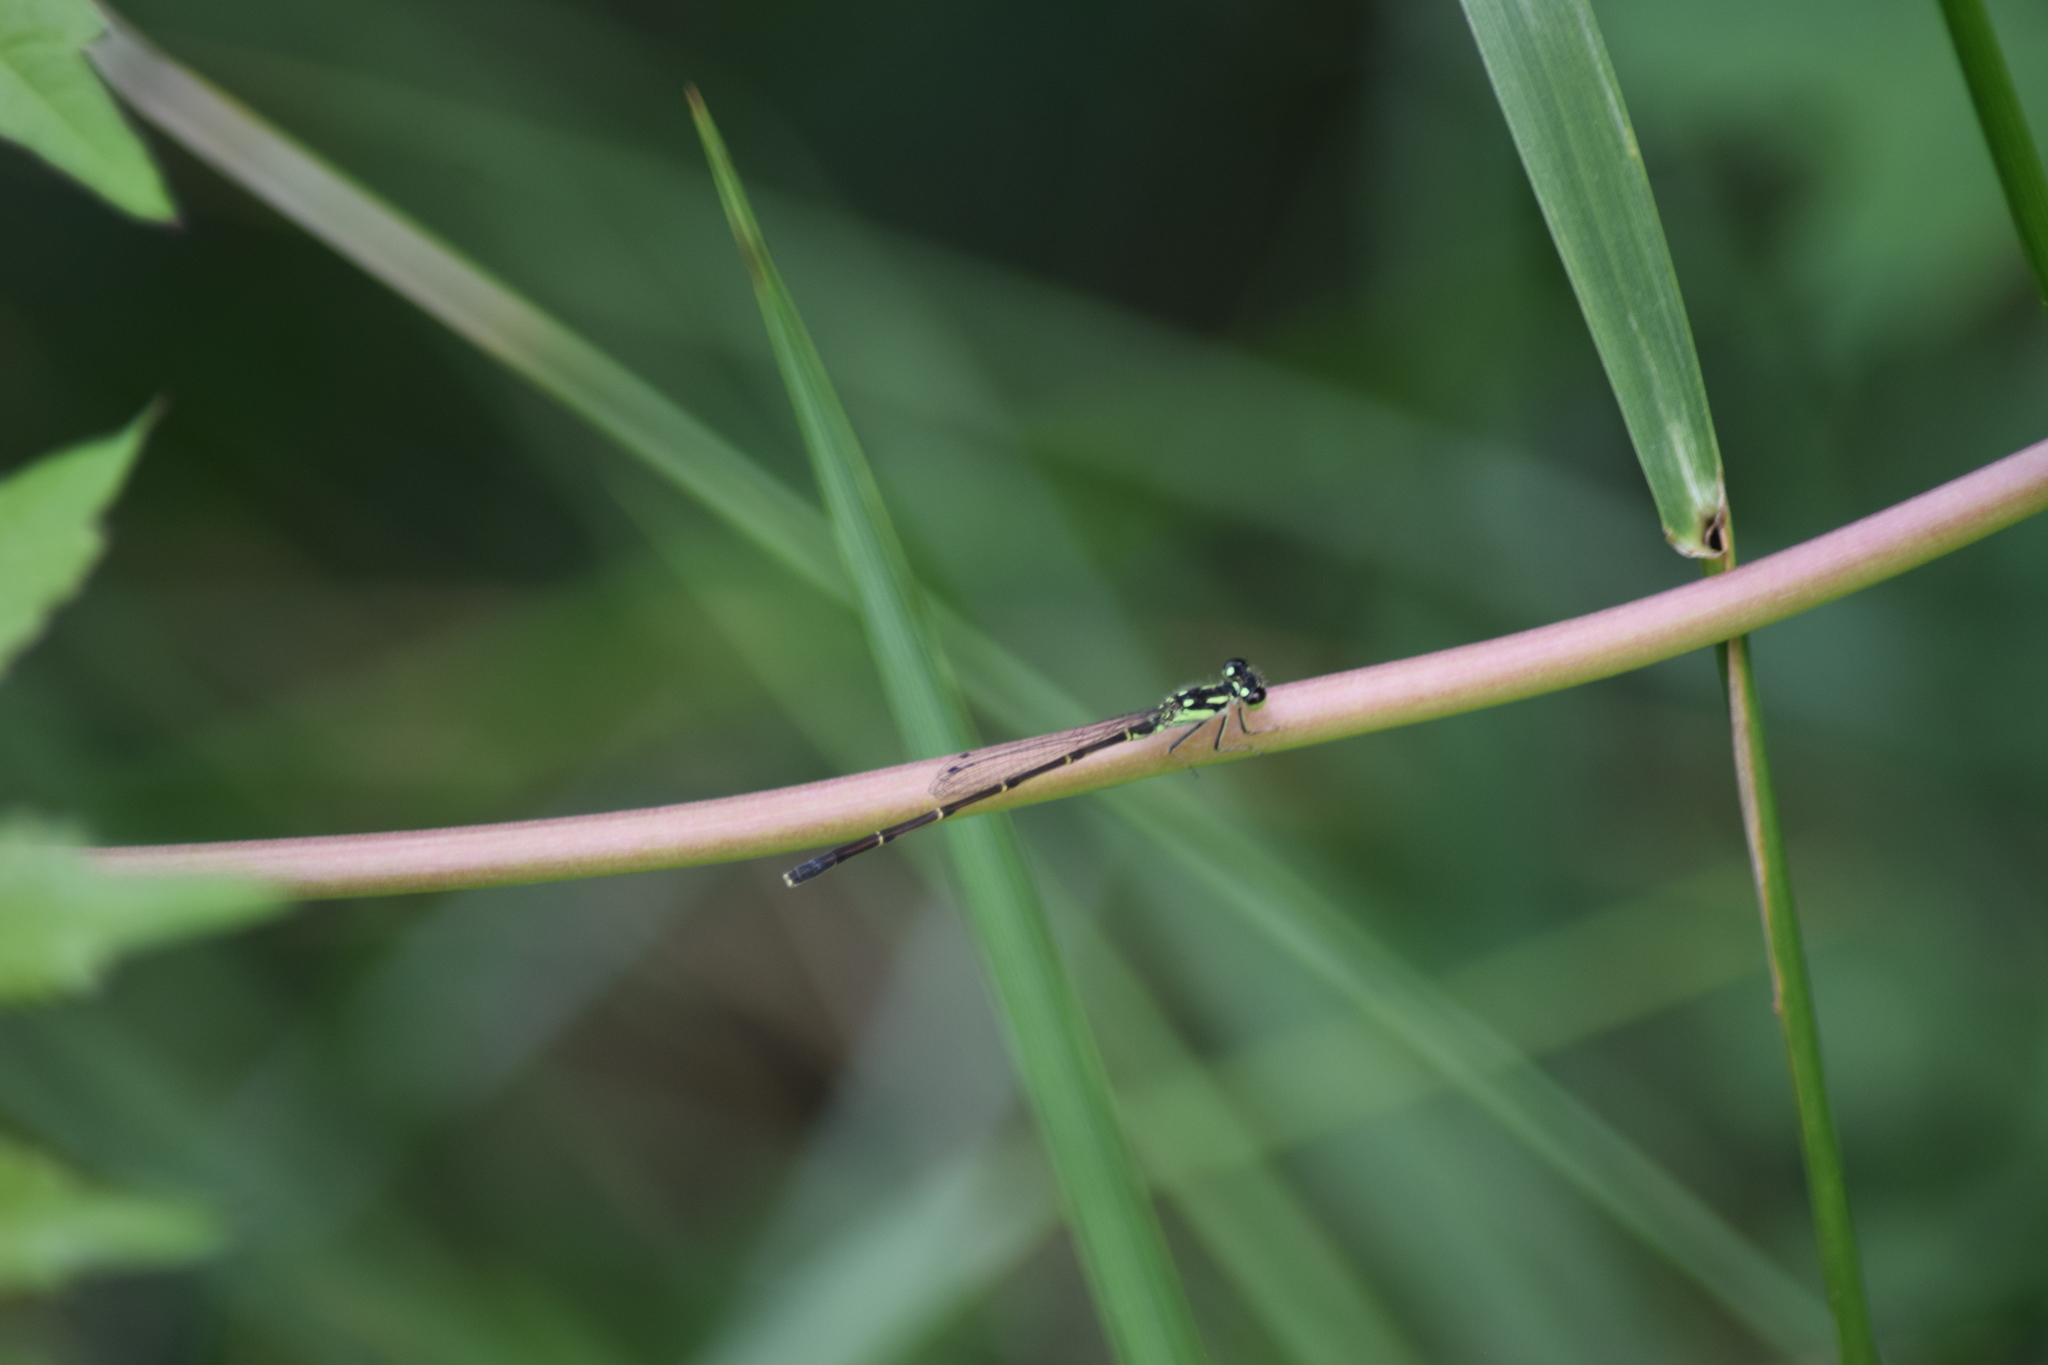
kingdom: Animalia
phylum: Arthropoda
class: Insecta
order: Odonata
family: Coenagrionidae
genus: Ischnura
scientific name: Ischnura posita
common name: Fragile forktail
